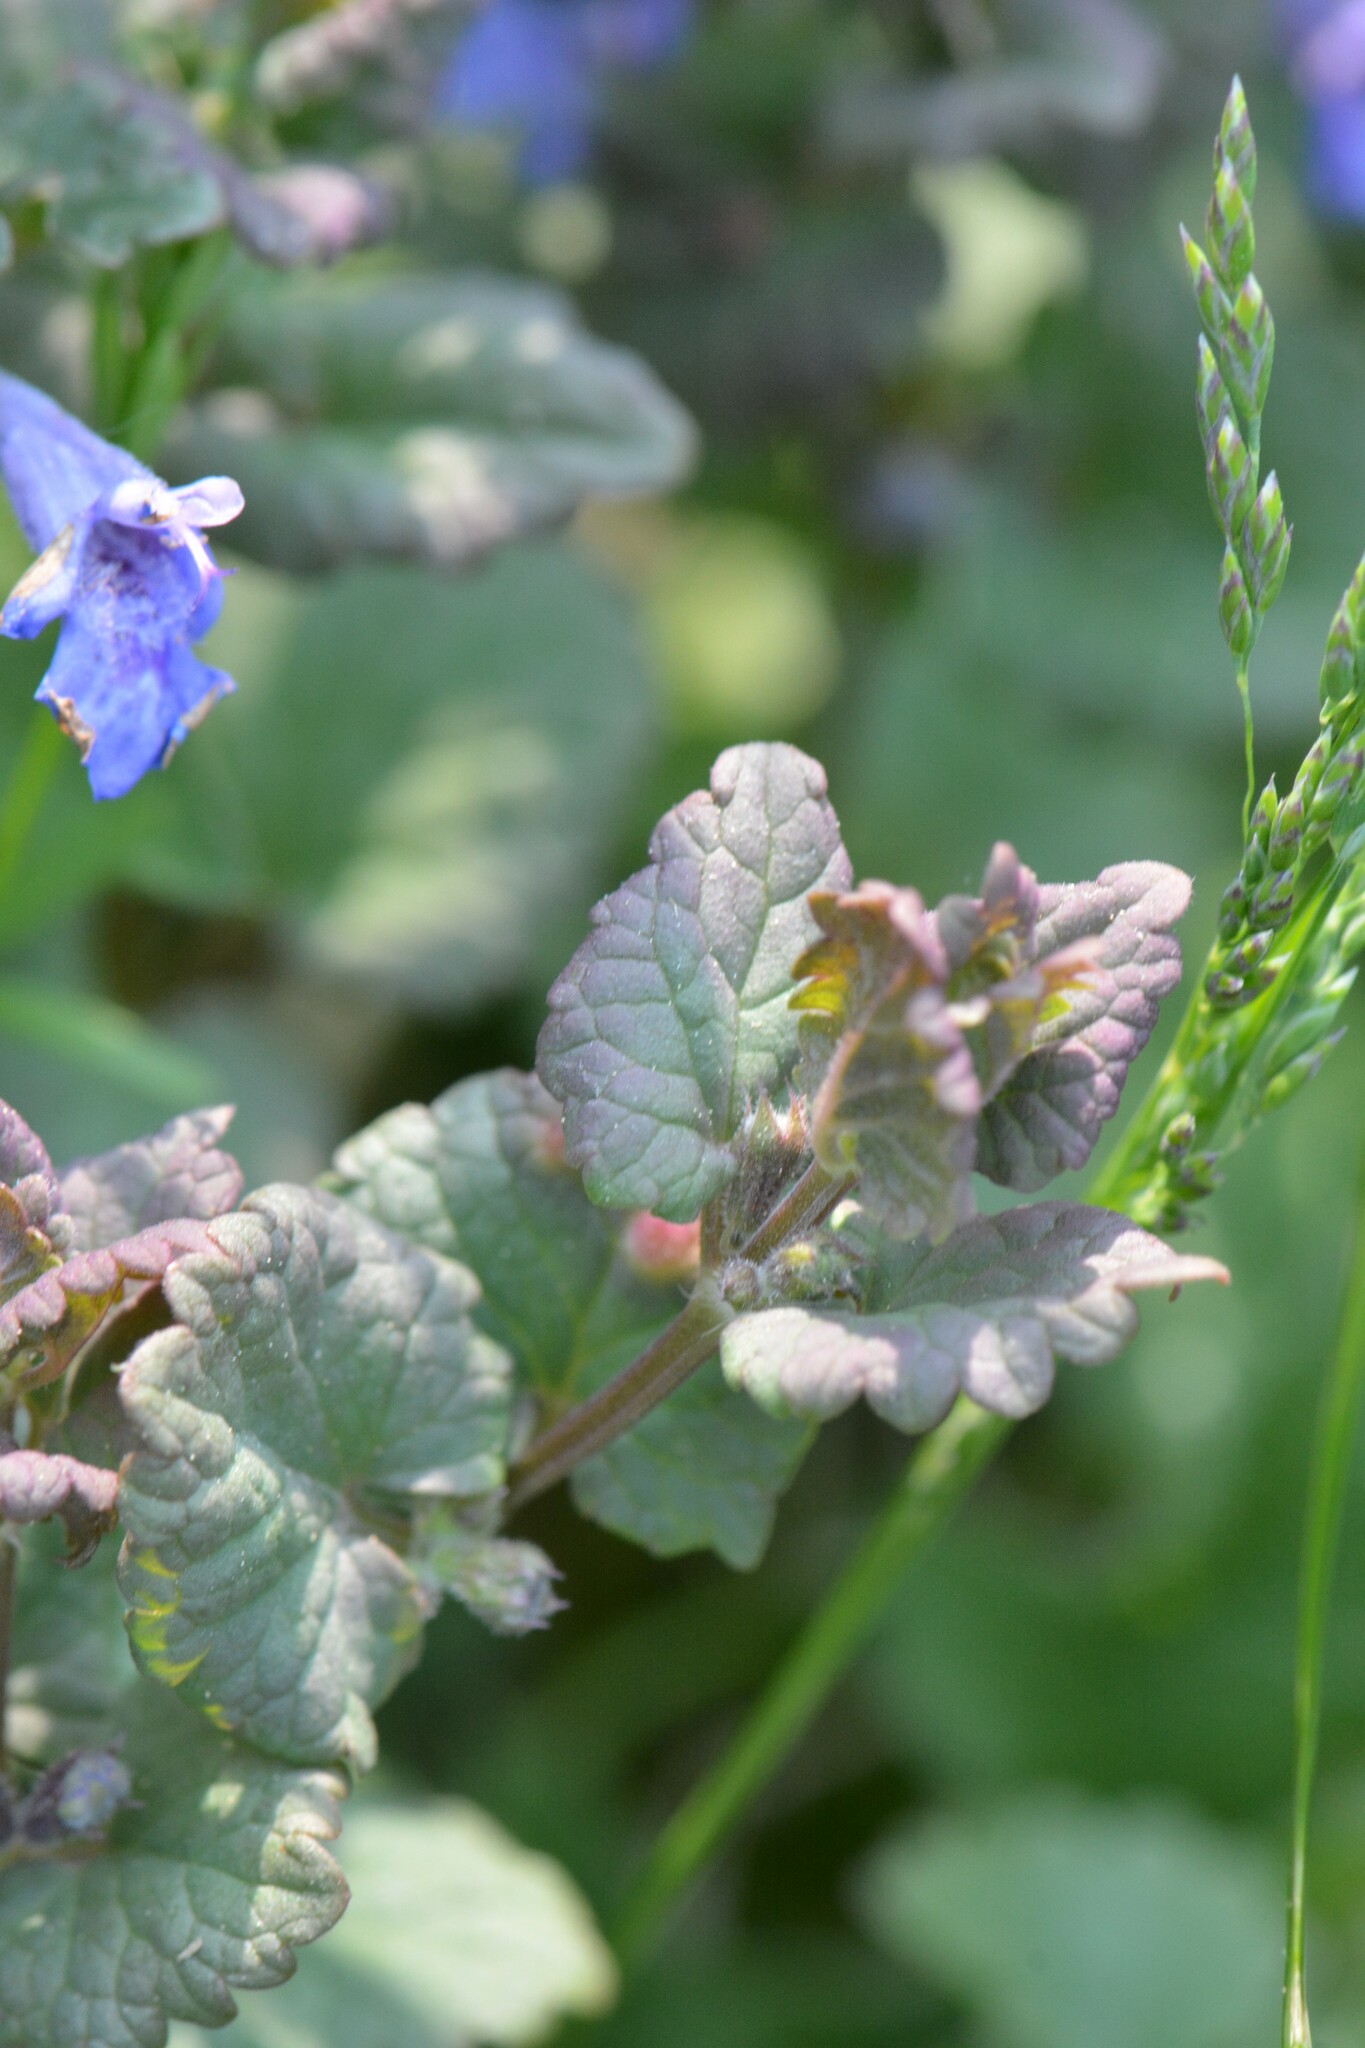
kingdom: Plantae
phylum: Tracheophyta
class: Magnoliopsida
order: Lamiales
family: Lamiaceae
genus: Glechoma
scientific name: Glechoma hederacea
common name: Ground ivy
